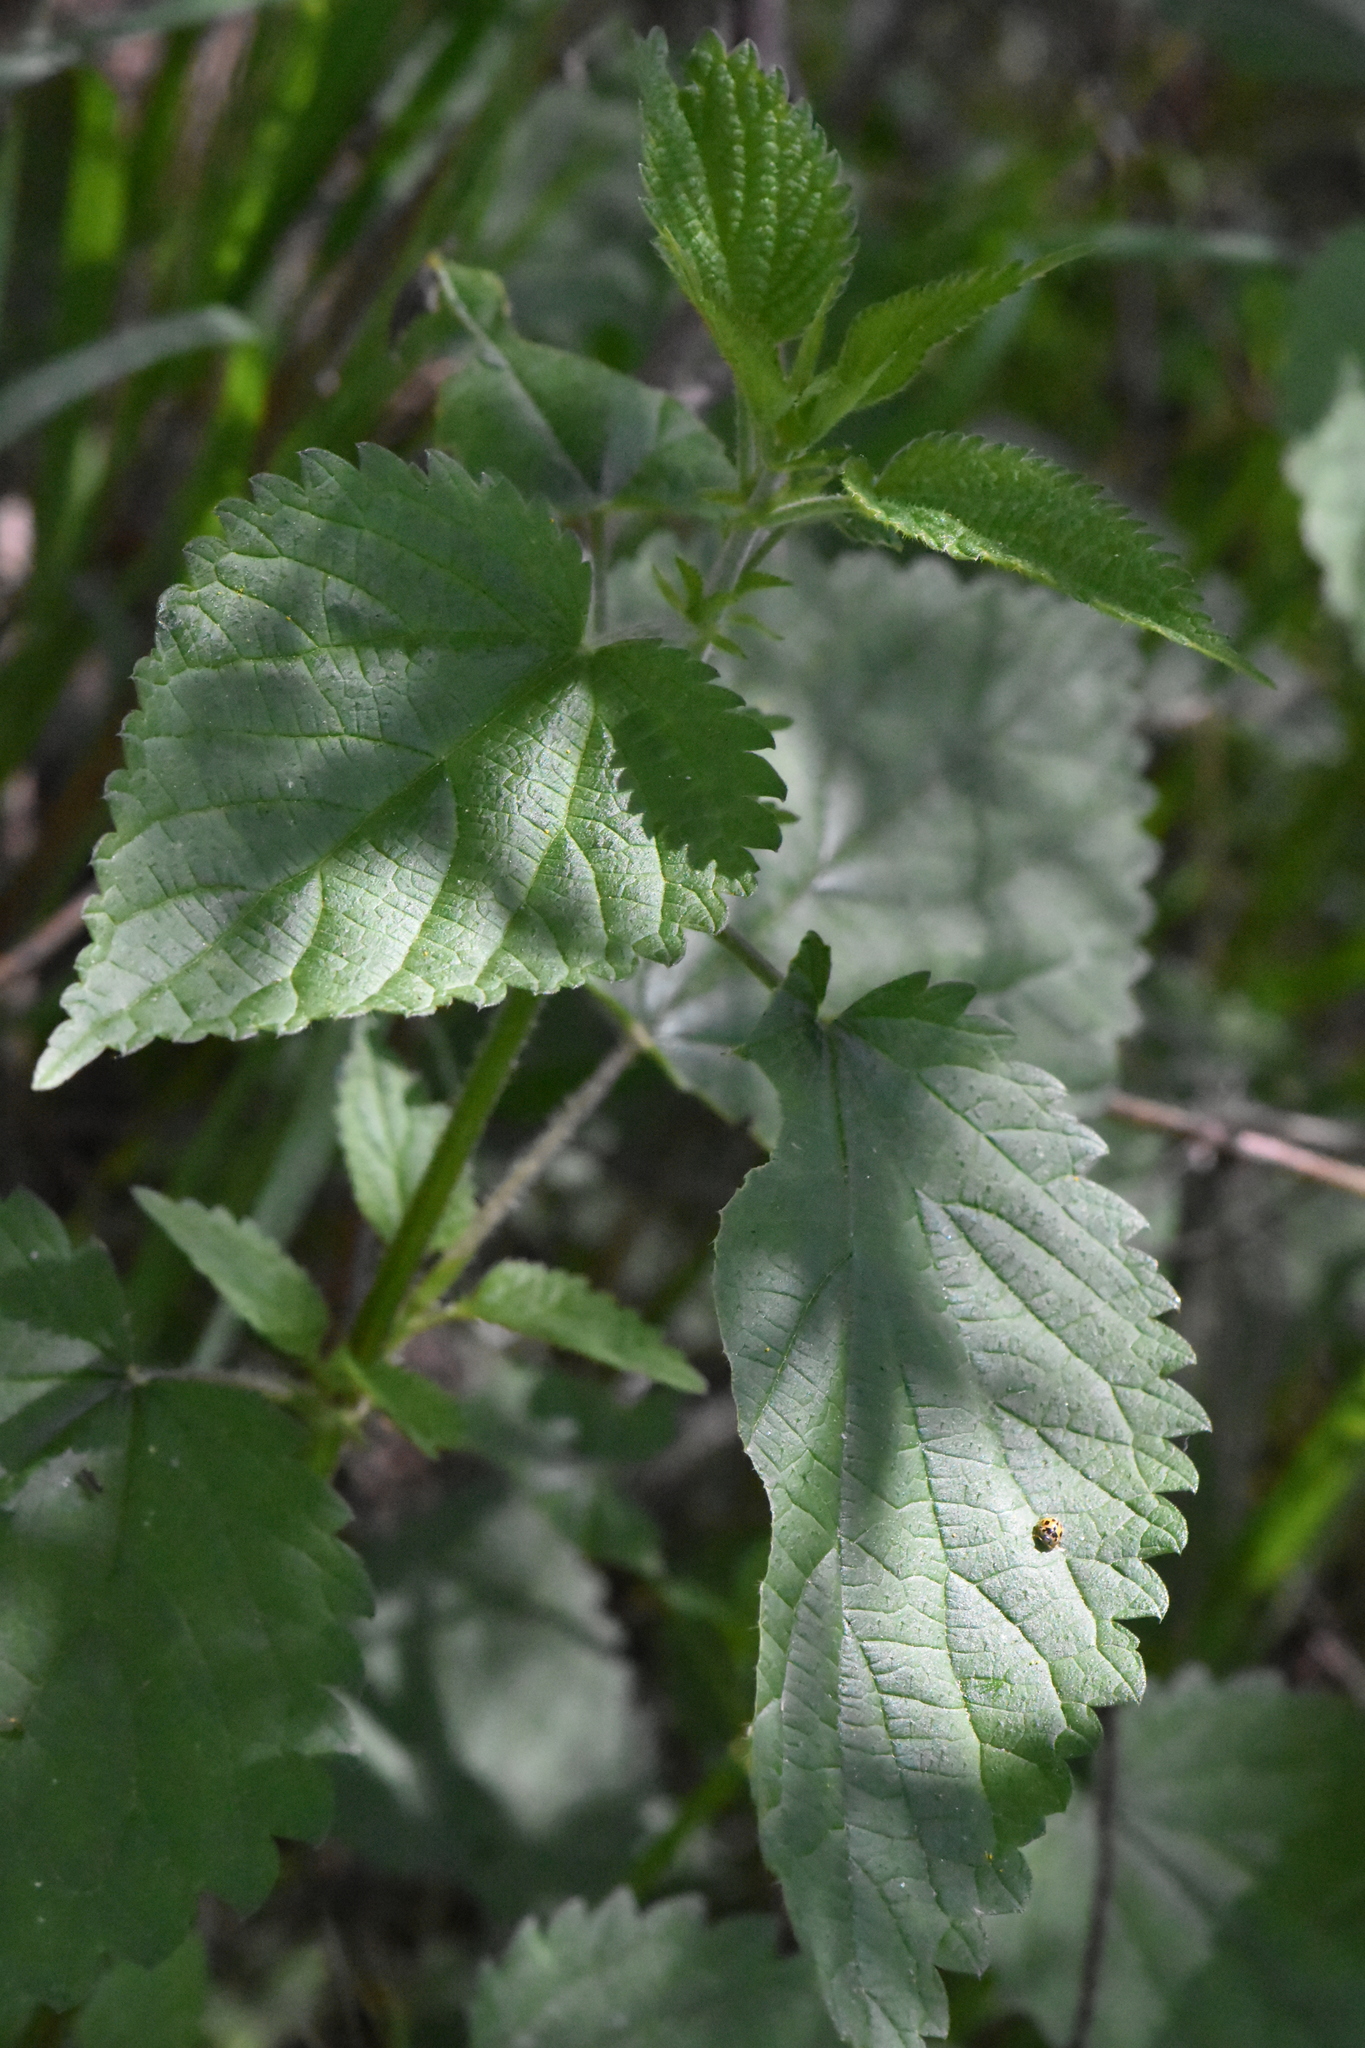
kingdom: Plantae
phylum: Tracheophyta
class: Magnoliopsida
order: Rosales
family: Urticaceae
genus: Urtica
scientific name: Urtica dioica
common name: Common nettle
